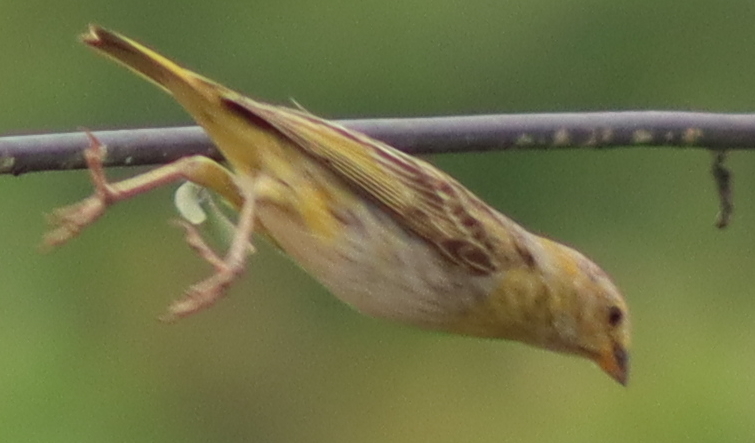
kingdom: Animalia
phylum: Chordata
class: Aves
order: Passeriformes
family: Thraupidae
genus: Sicalis
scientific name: Sicalis flaveola
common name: Saffron finch
